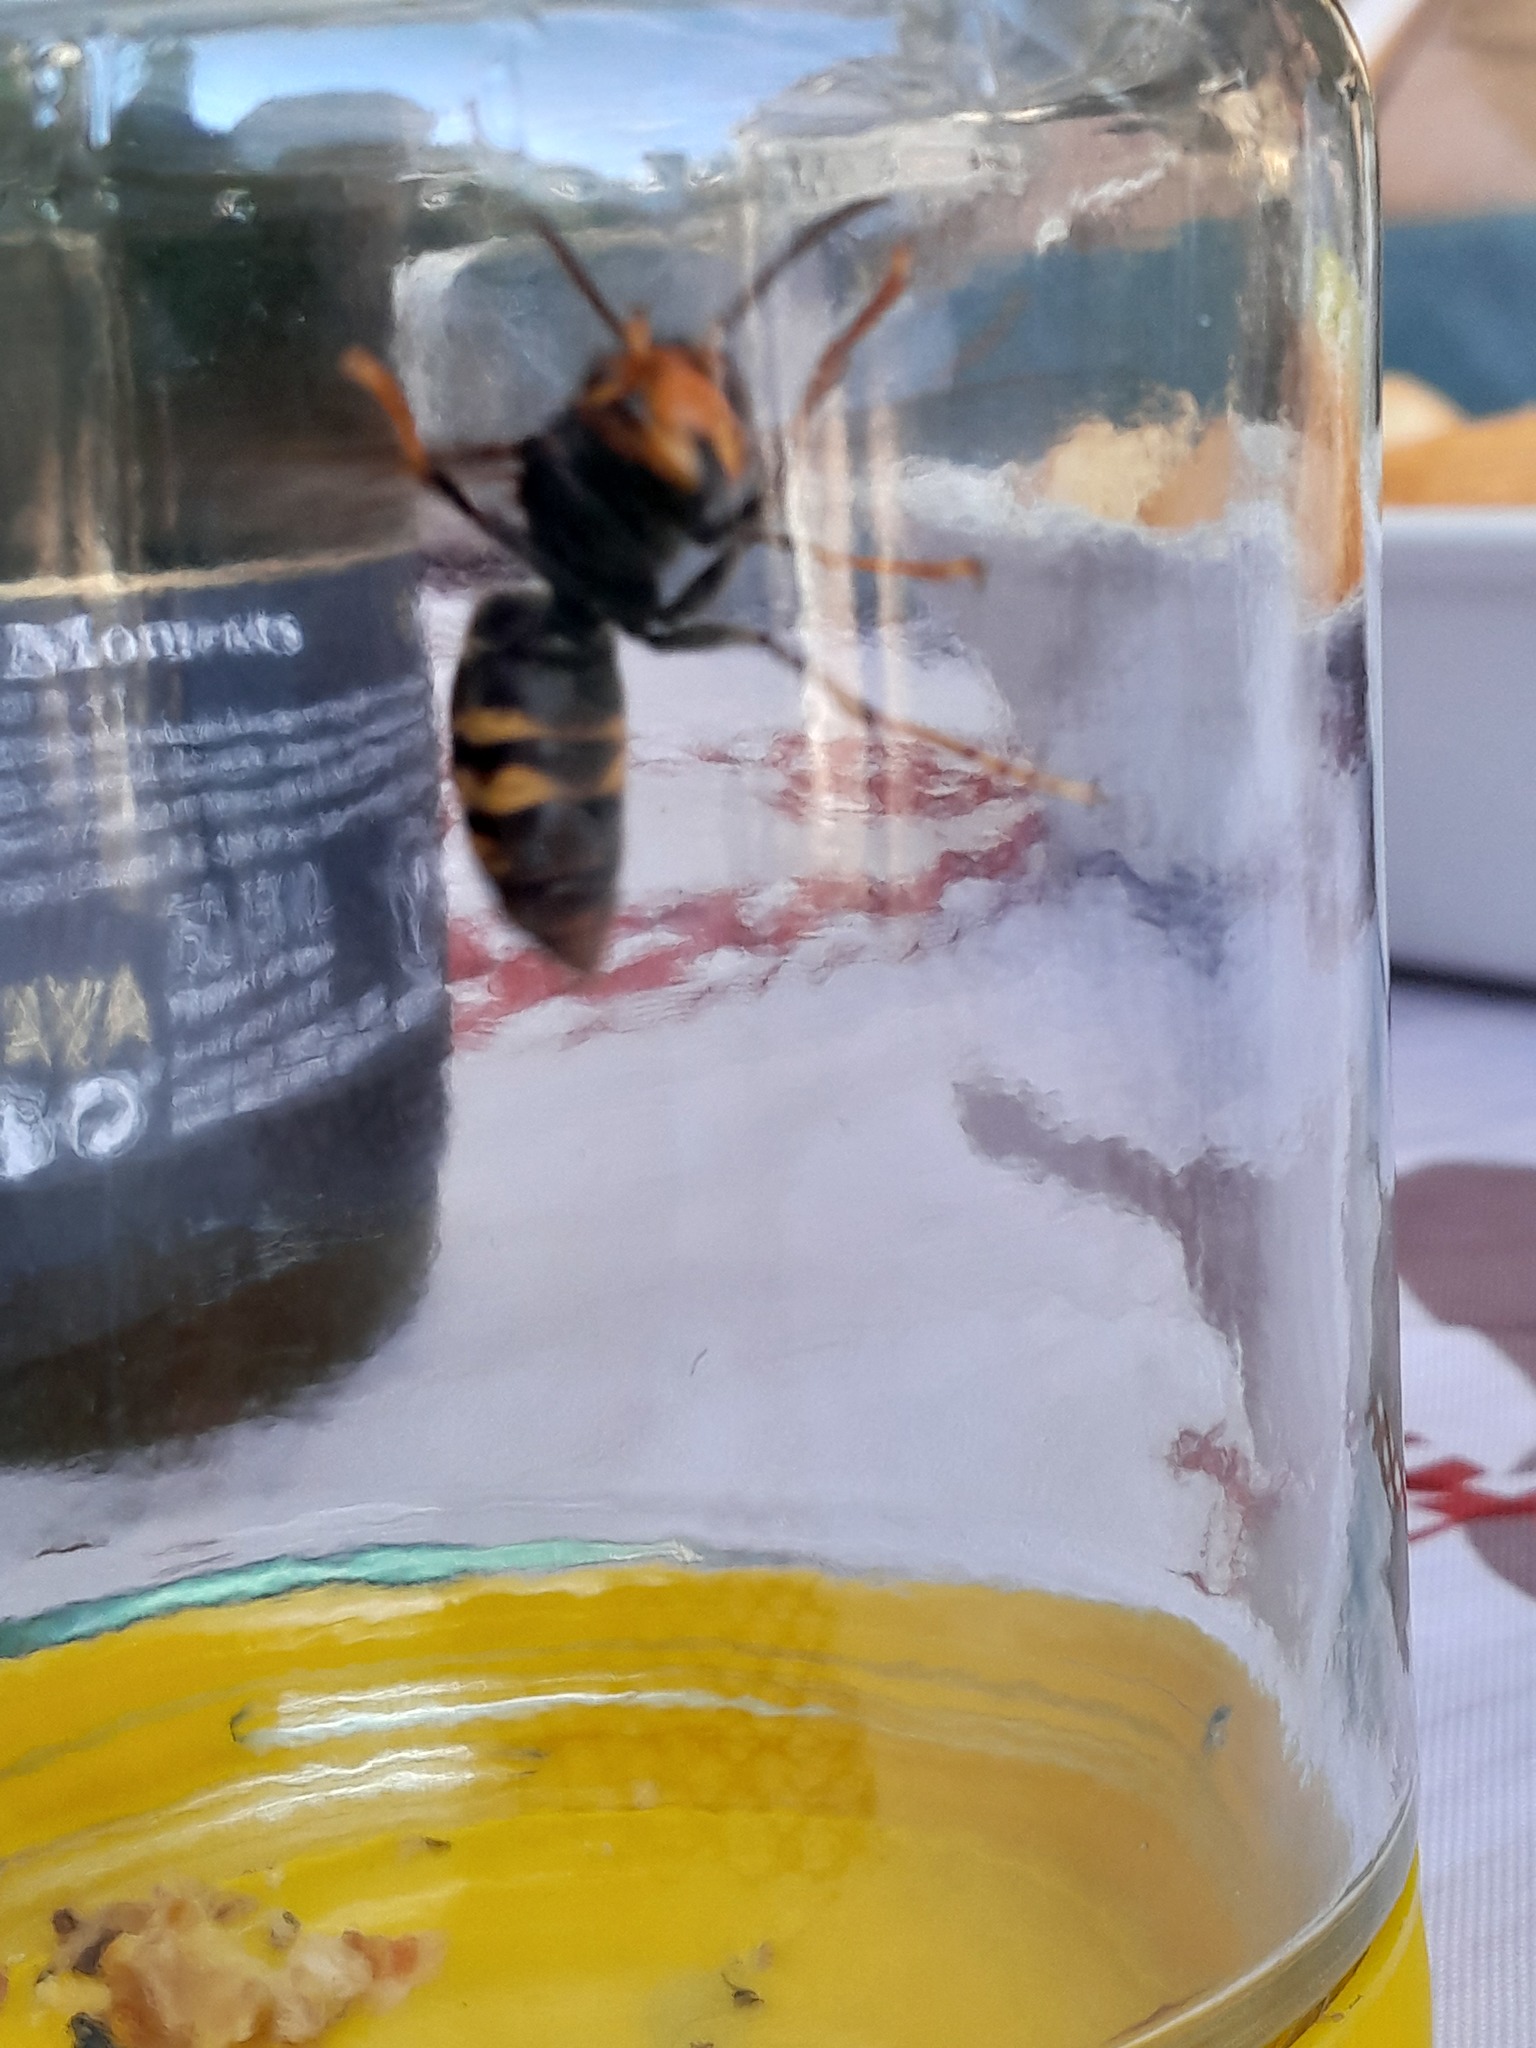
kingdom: Animalia
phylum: Arthropoda
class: Insecta
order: Hymenoptera
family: Vespidae
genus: Vespa
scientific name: Vespa velutina
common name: Asian hornet
